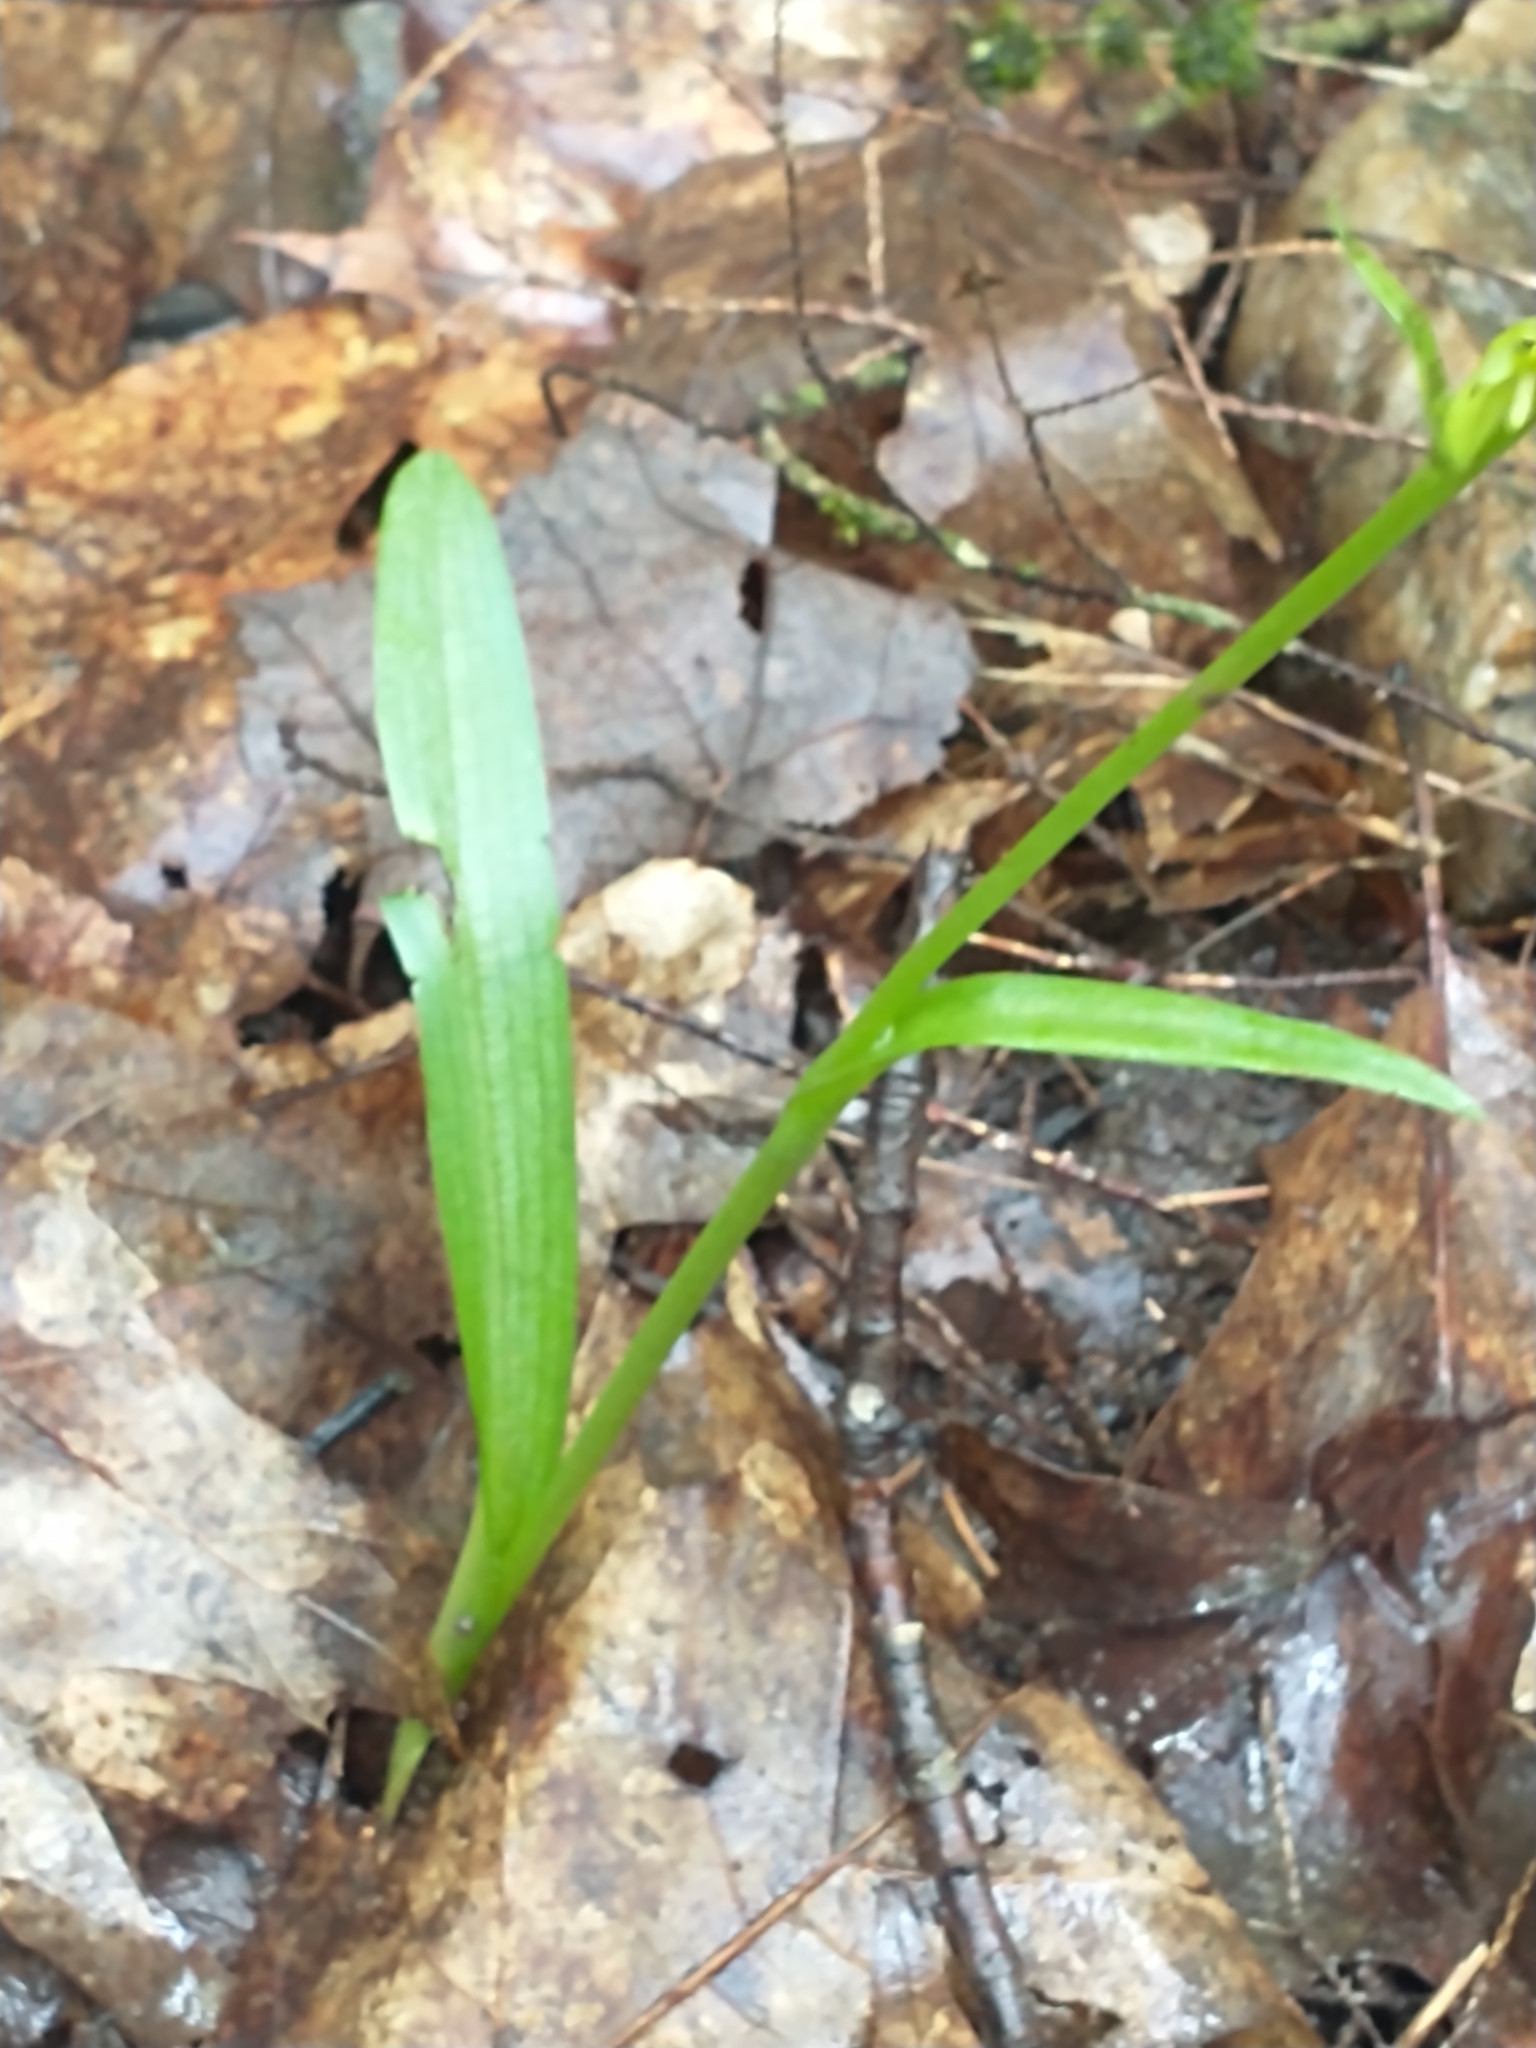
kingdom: Plantae
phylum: Tracheophyta
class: Liliopsida
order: Asparagales
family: Orchidaceae
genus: Platanthera
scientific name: Platanthera aquilonis
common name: Northern green orchid
